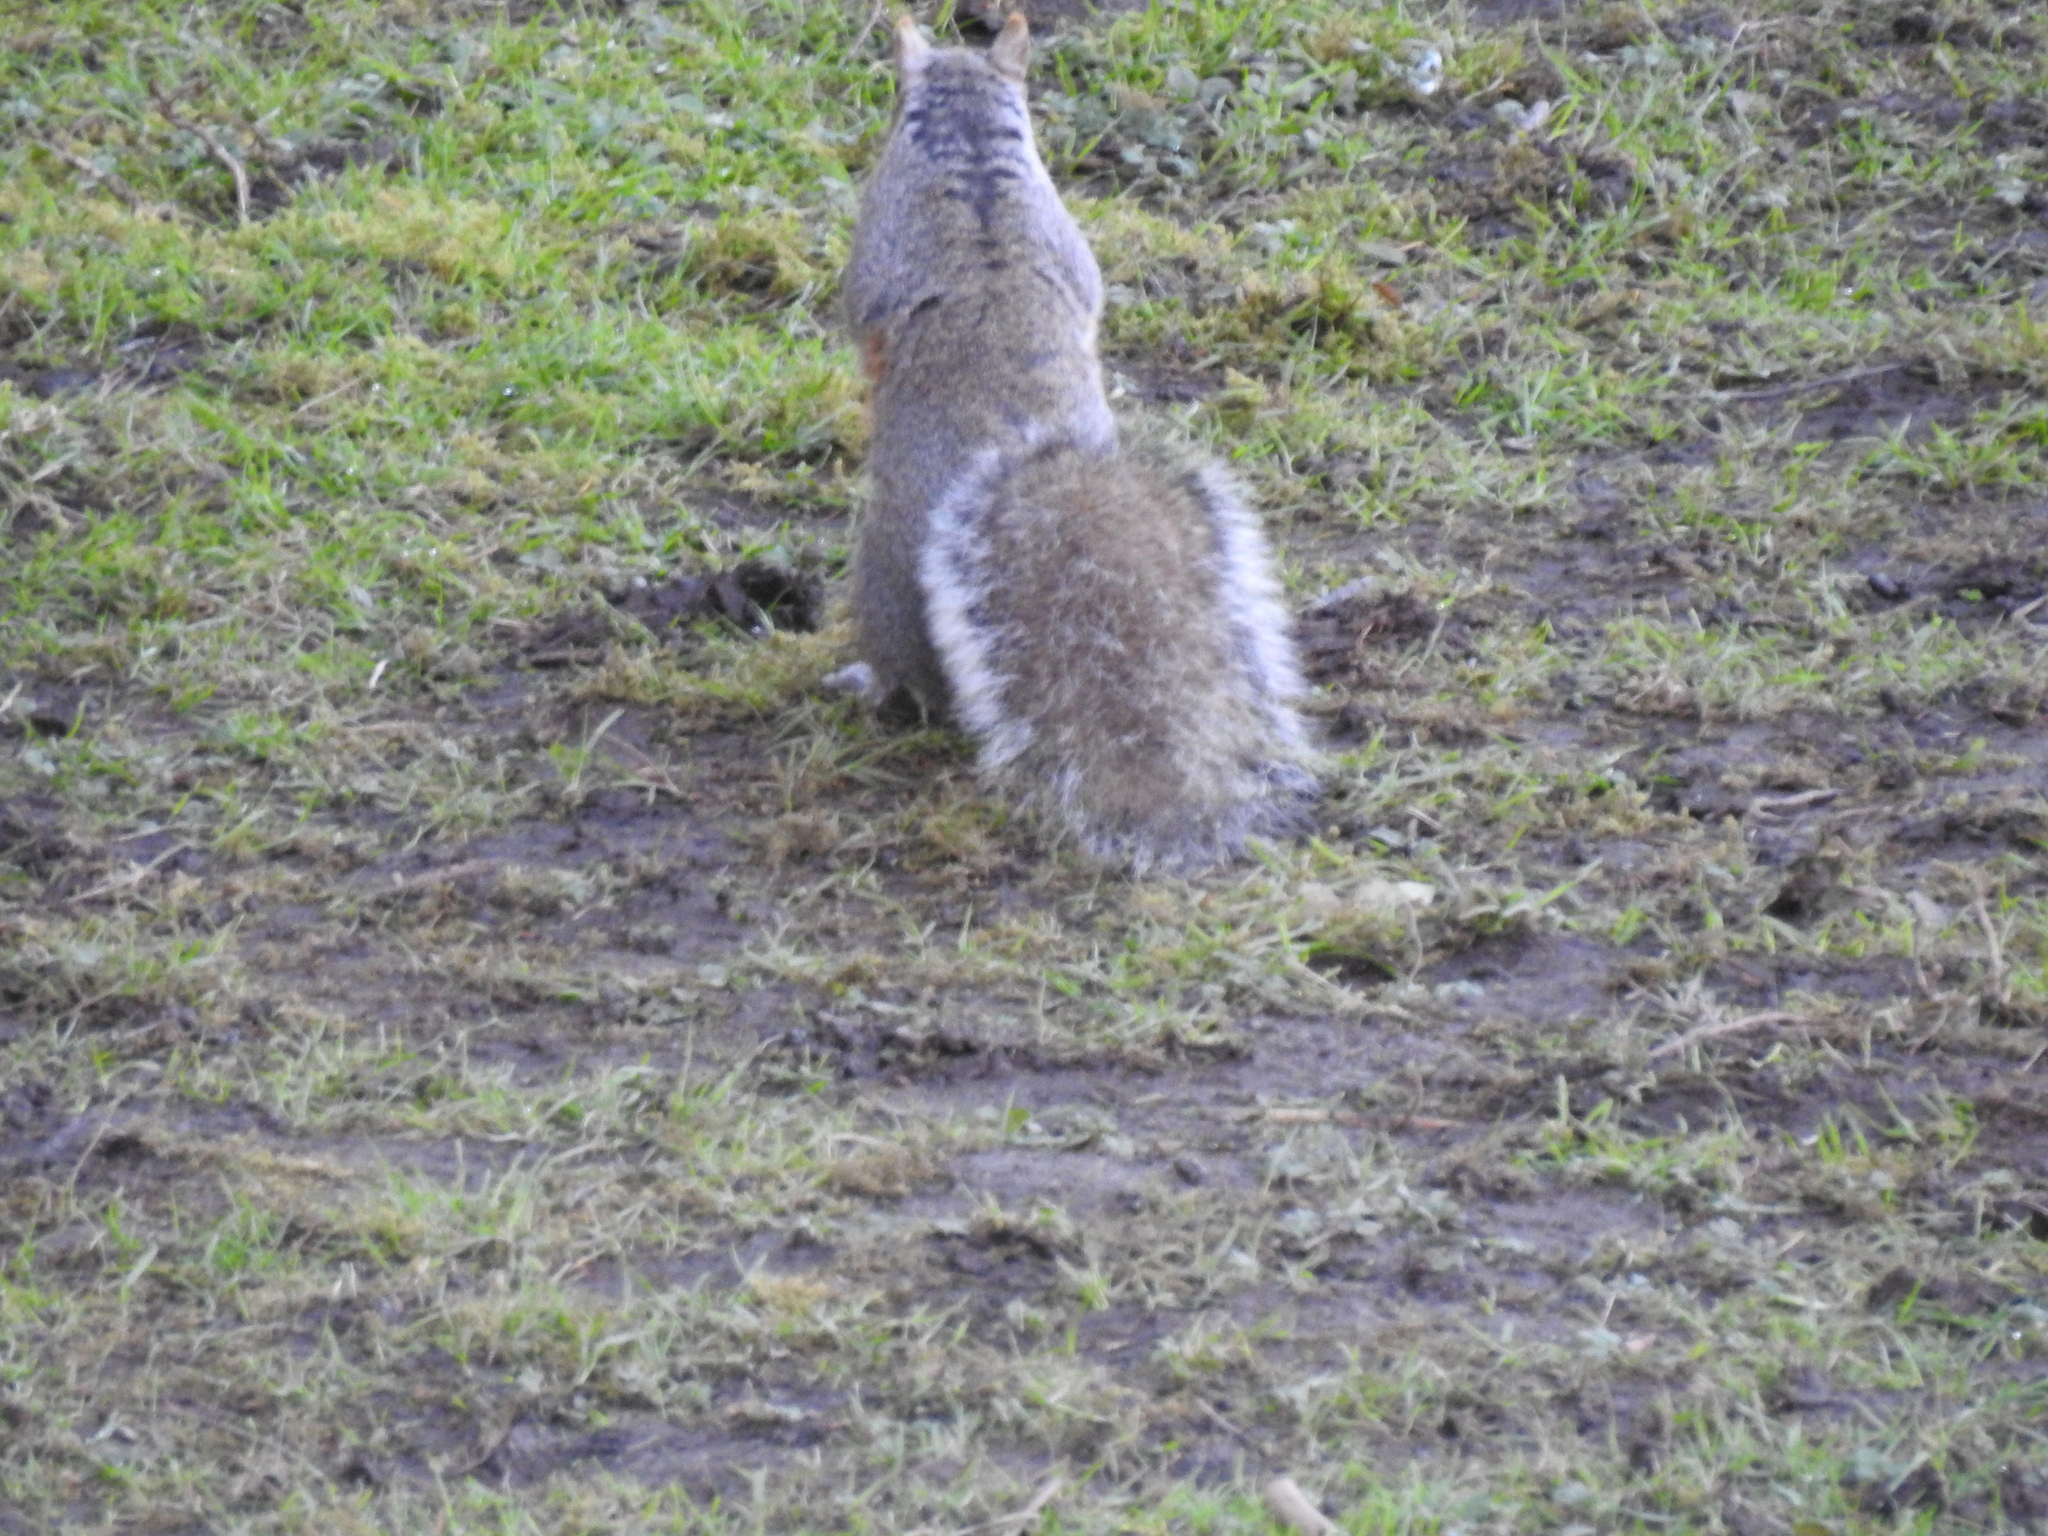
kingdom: Animalia
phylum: Chordata
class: Mammalia
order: Rodentia
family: Sciuridae
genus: Sciurus
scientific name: Sciurus carolinensis
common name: Eastern gray squirrel
